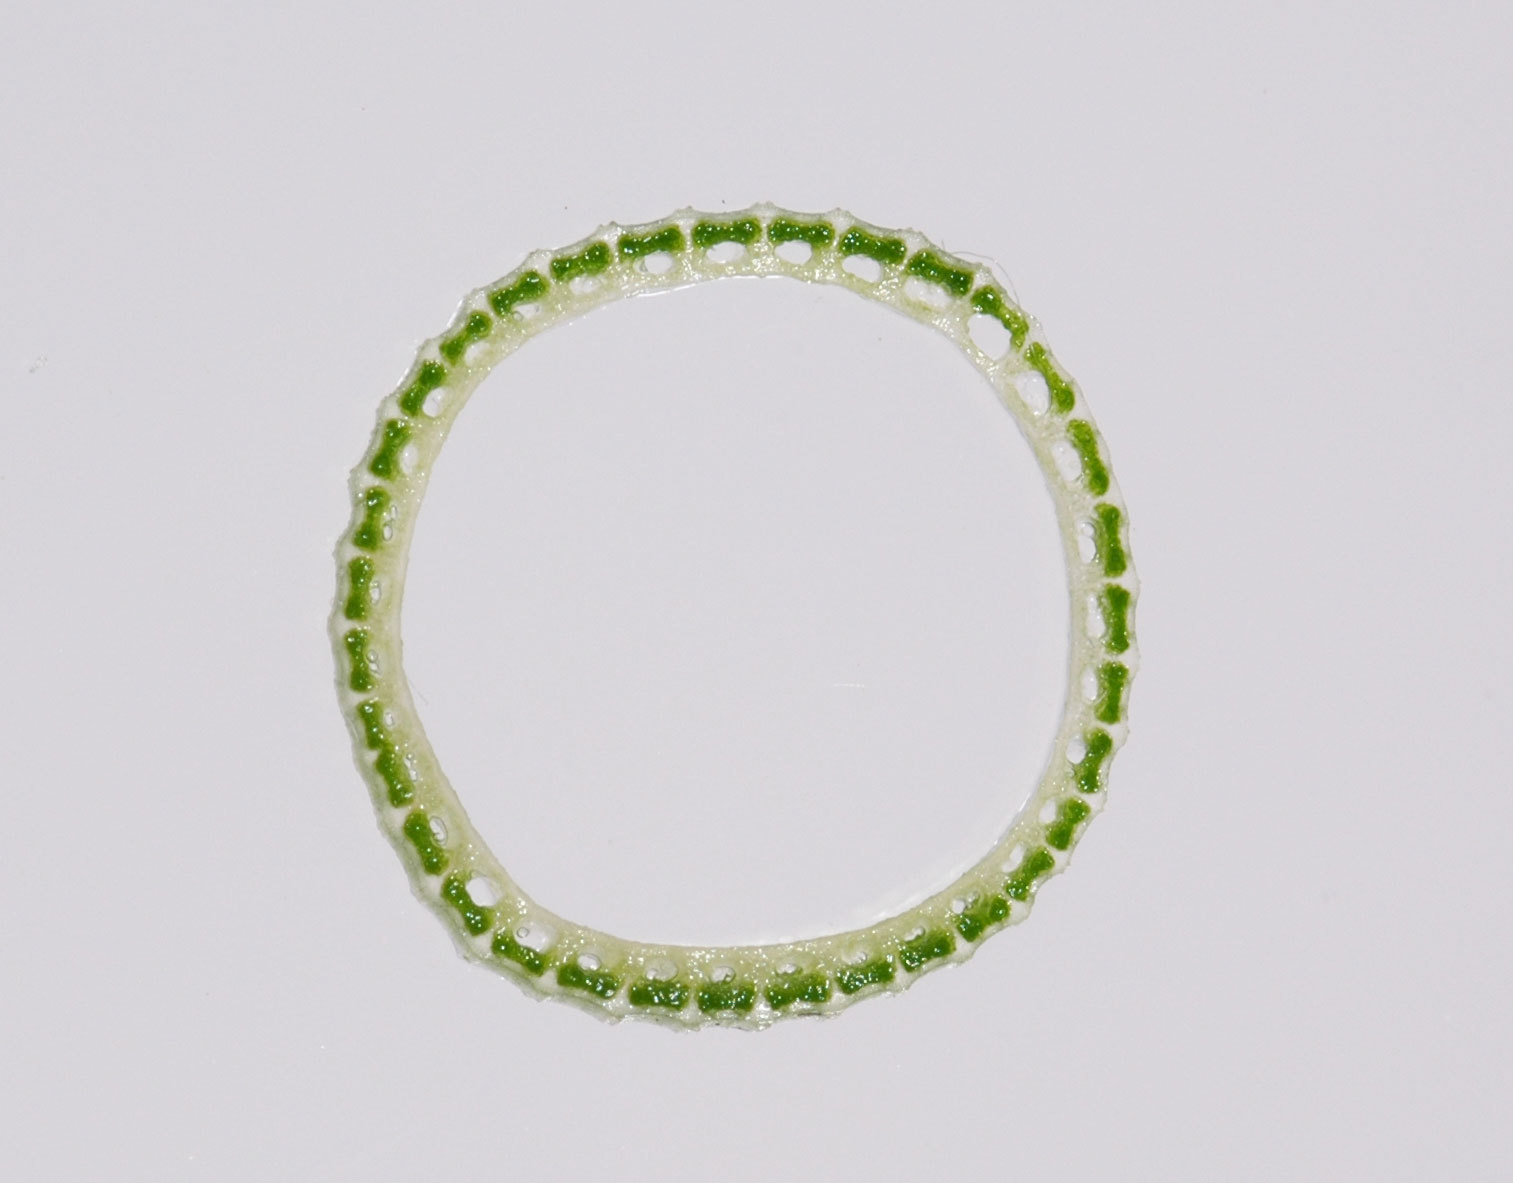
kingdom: Plantae
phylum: Tracheophyta
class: Polypodiopsida
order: Equisetales
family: Equisetaceae
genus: Equisetum
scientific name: Equisetum praealtum
